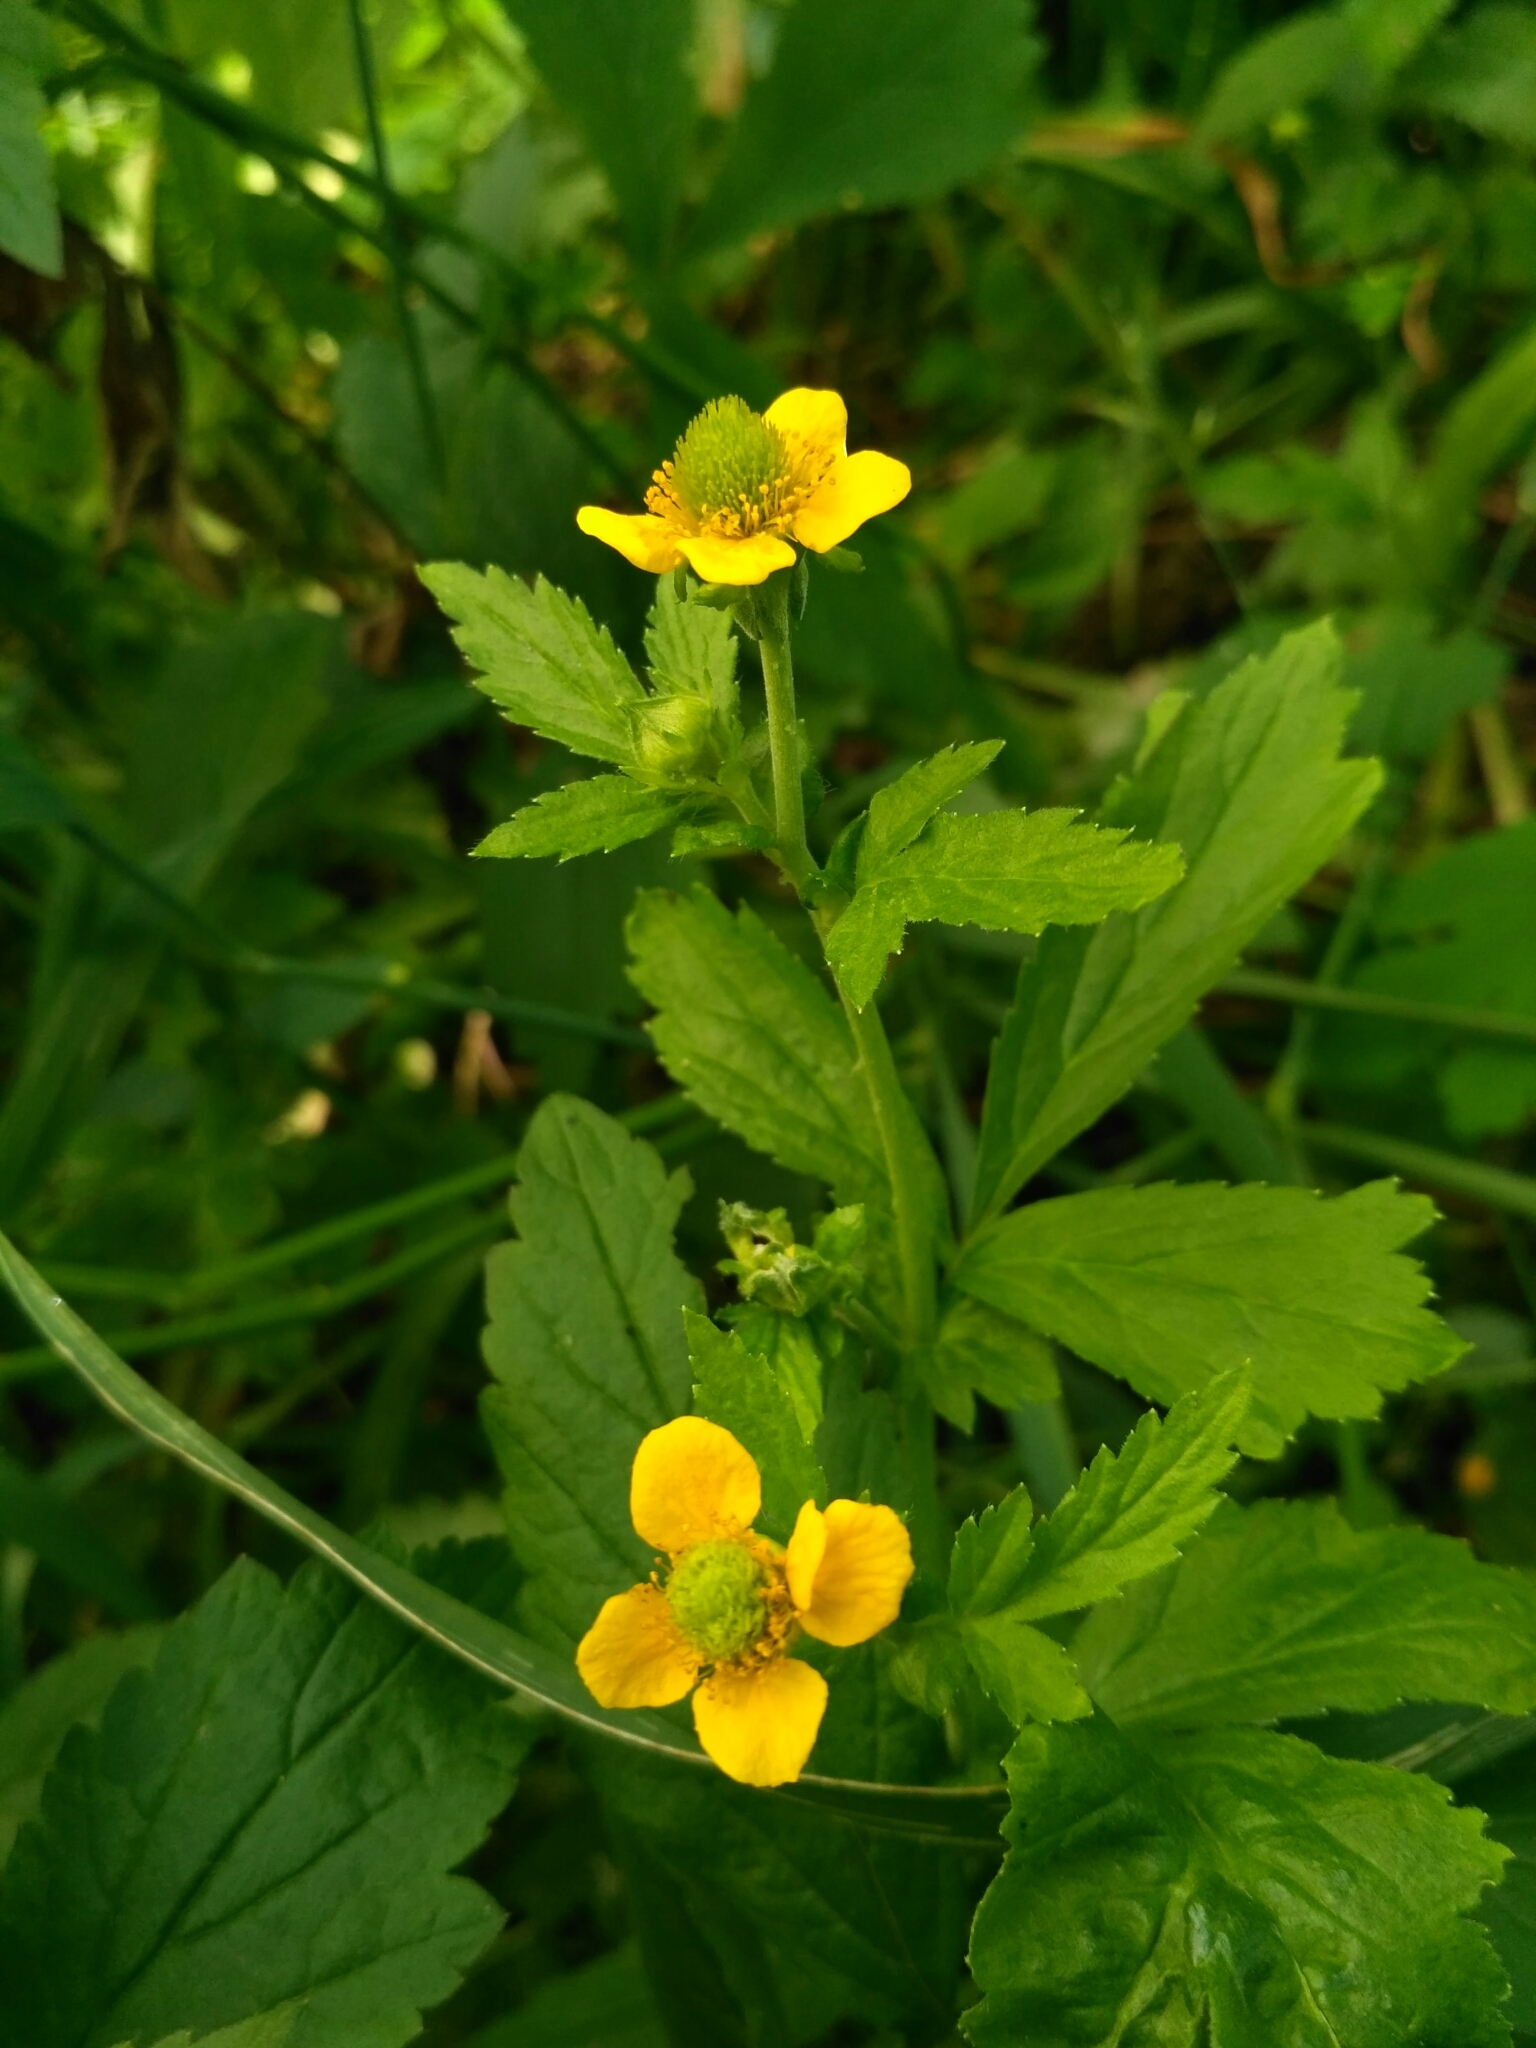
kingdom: Plantae
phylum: Tracheophyta
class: Magnoliopsida
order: Rosales
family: Rosaceae
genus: Geum
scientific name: Geum aleppicum
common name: Yellow avens
